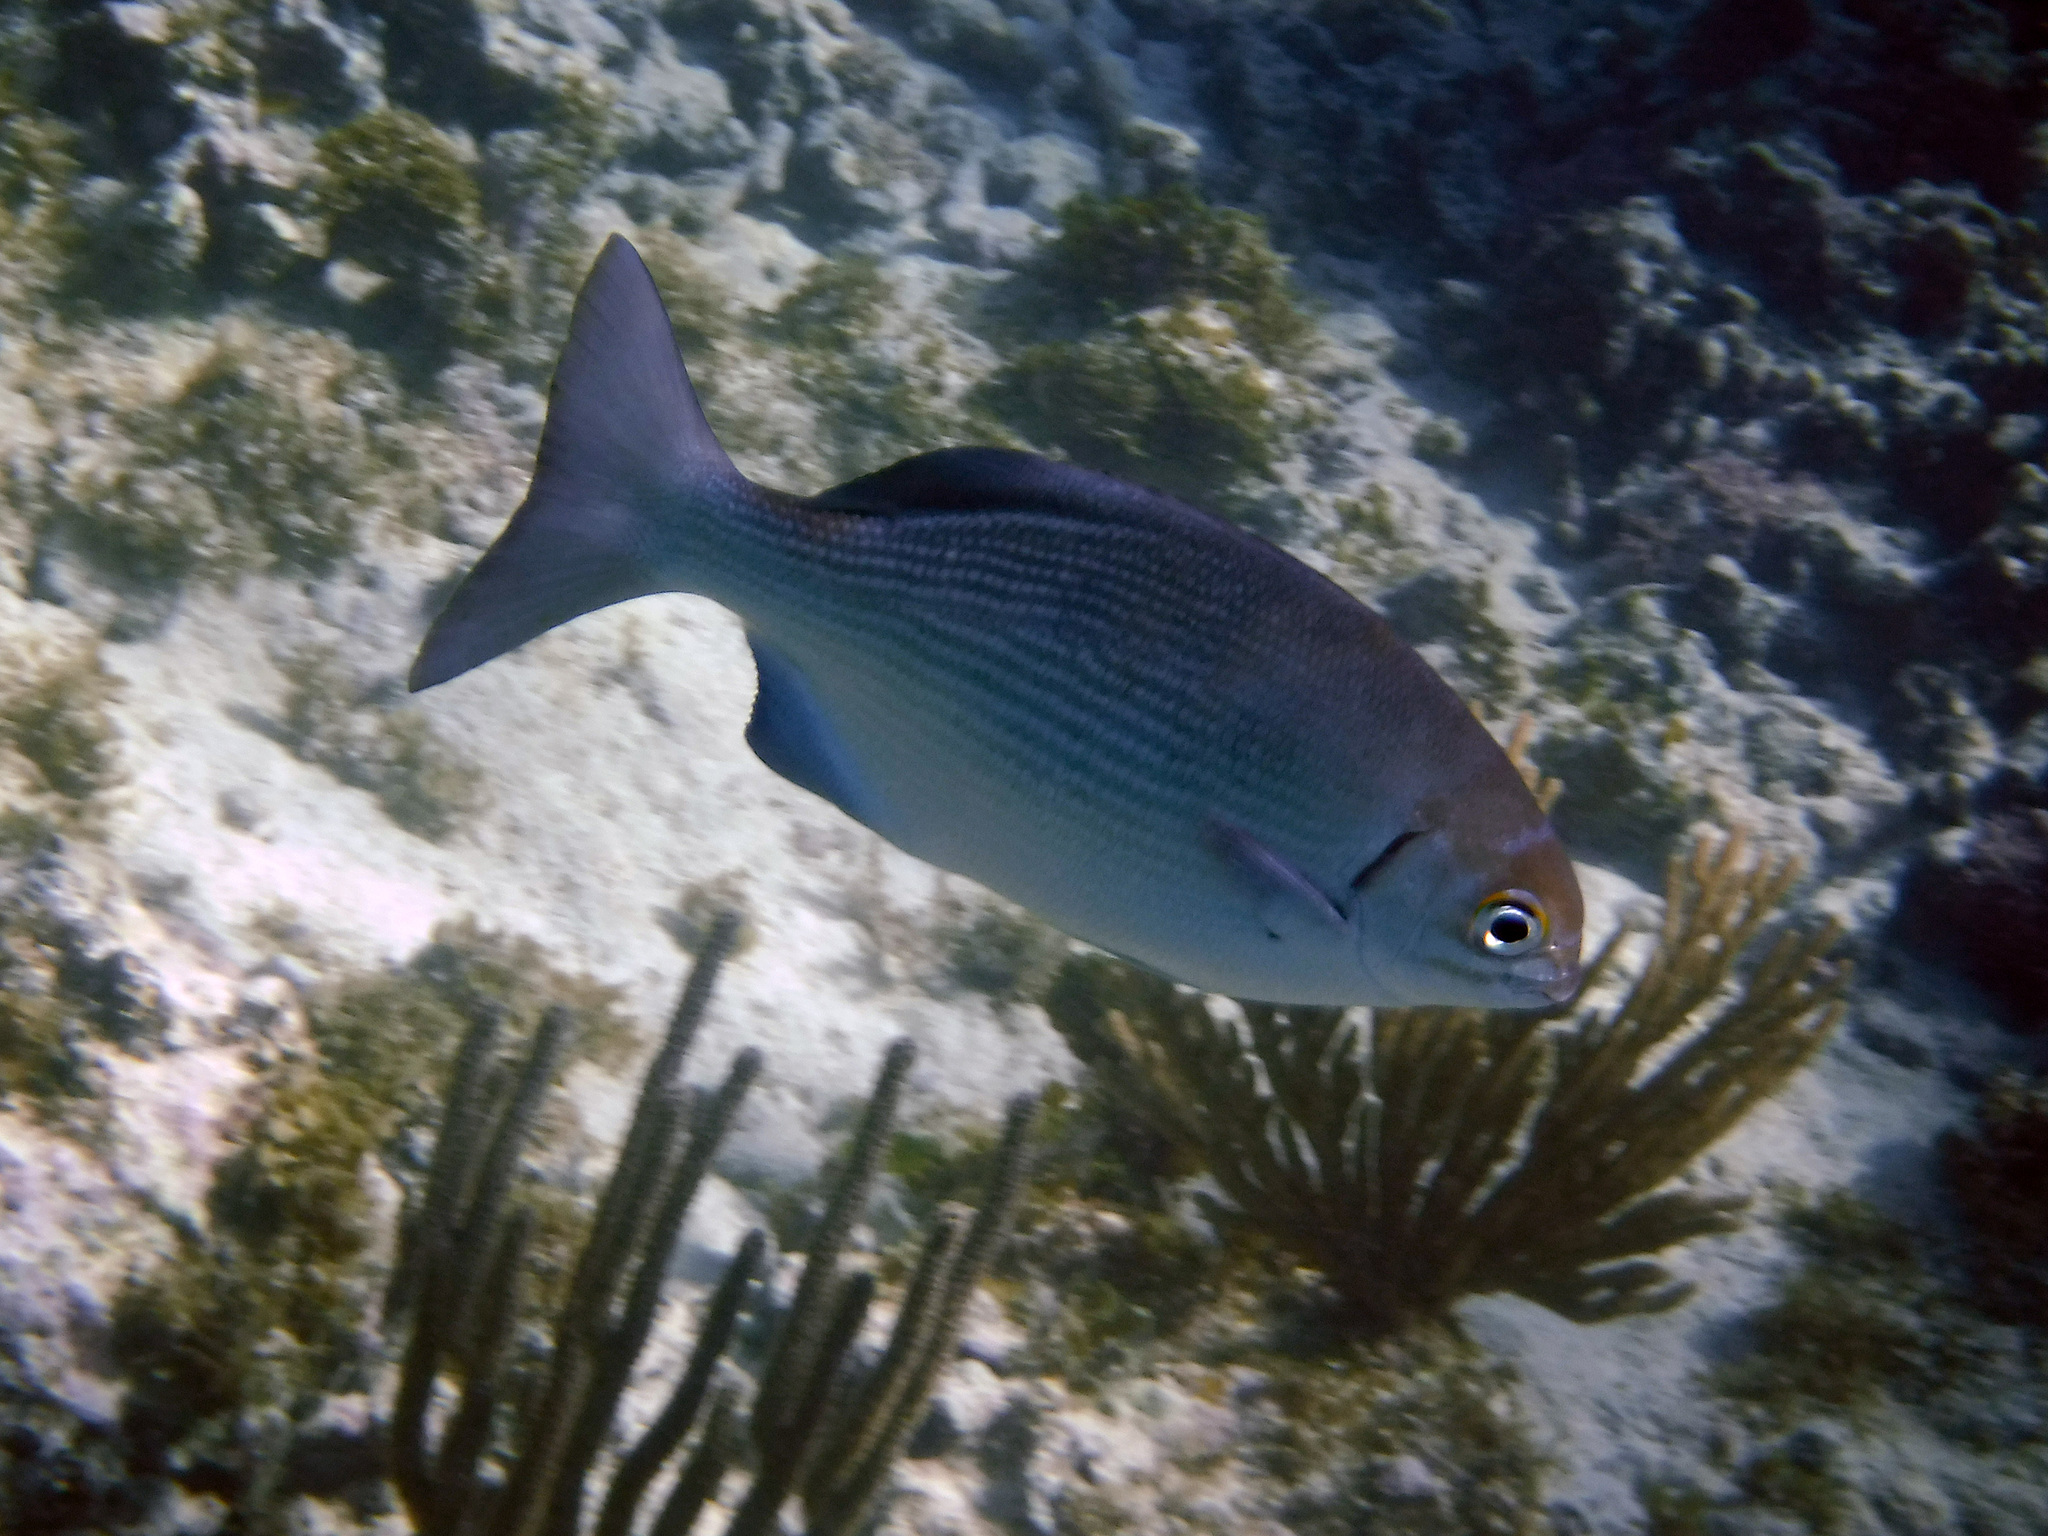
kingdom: Animalia
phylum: Chordata
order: Perciformes
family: Kyphosidae
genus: Kyphosus
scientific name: Kyphosus sectatrix
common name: Bermuda chub
